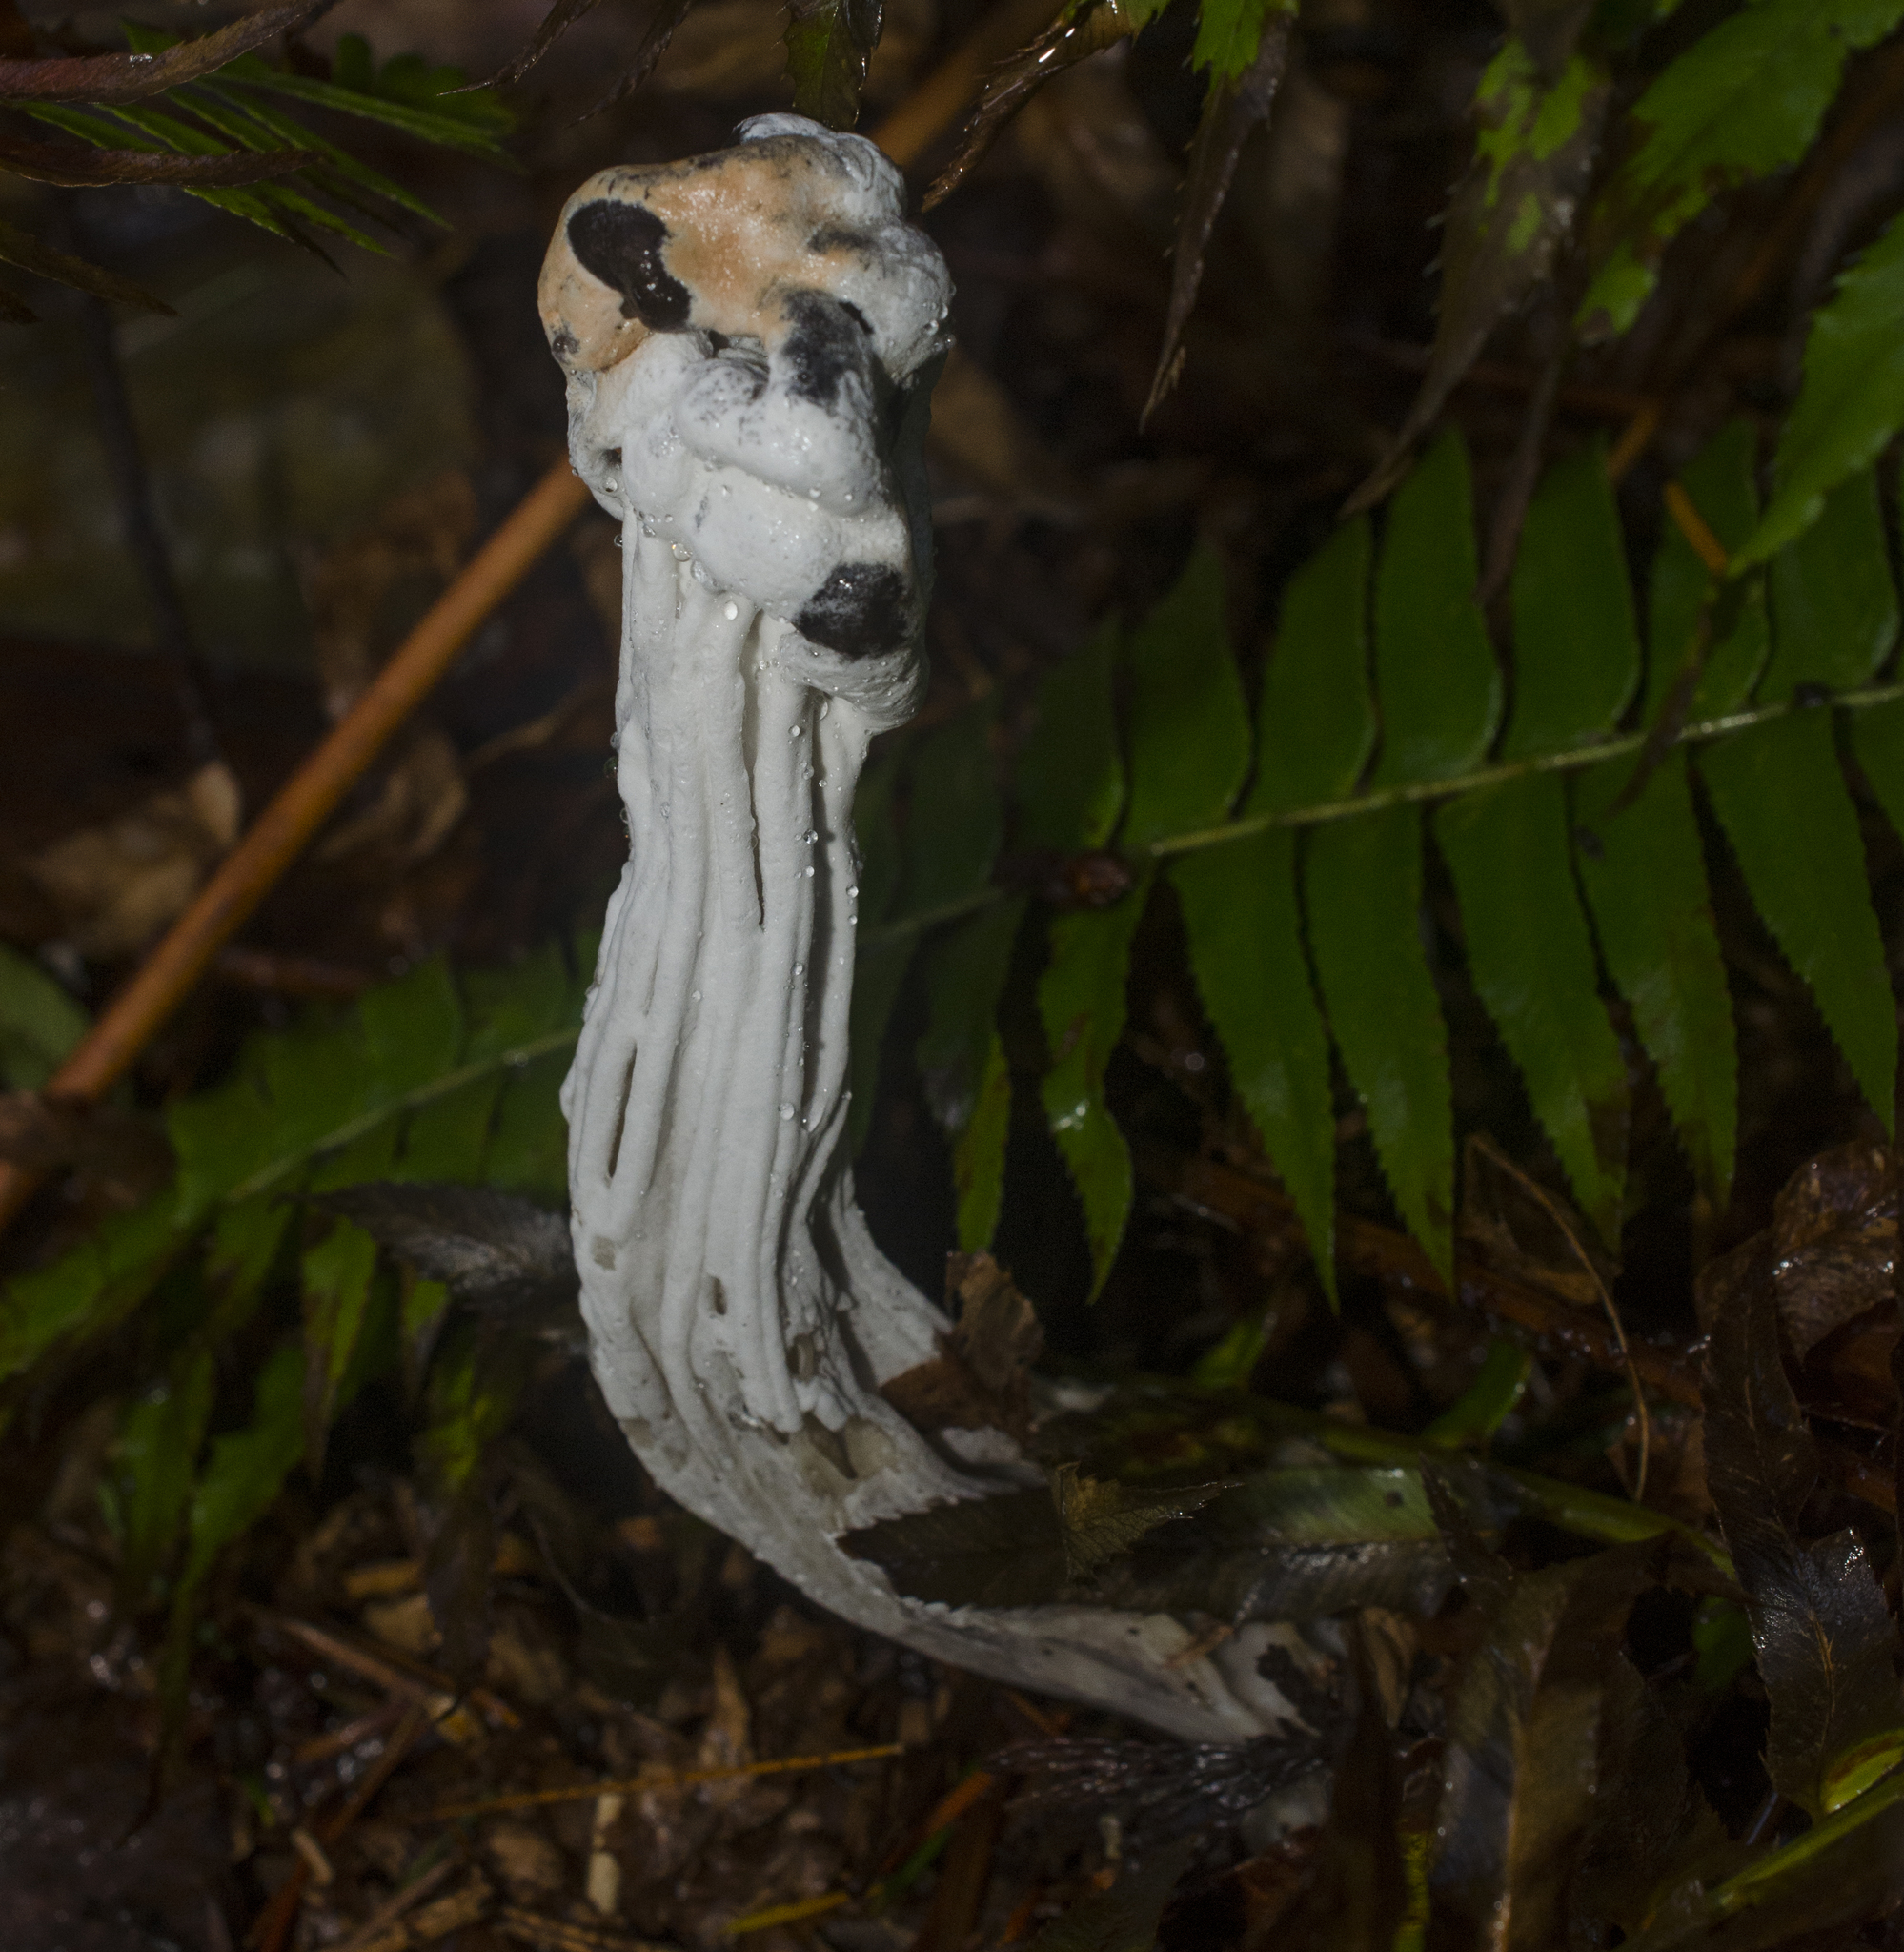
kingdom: Fungi
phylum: Ascomycota
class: Sordariomycetes
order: Hypocreales
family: Hypocreaceae
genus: Hypomyces
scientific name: Hypomyces cervinus
